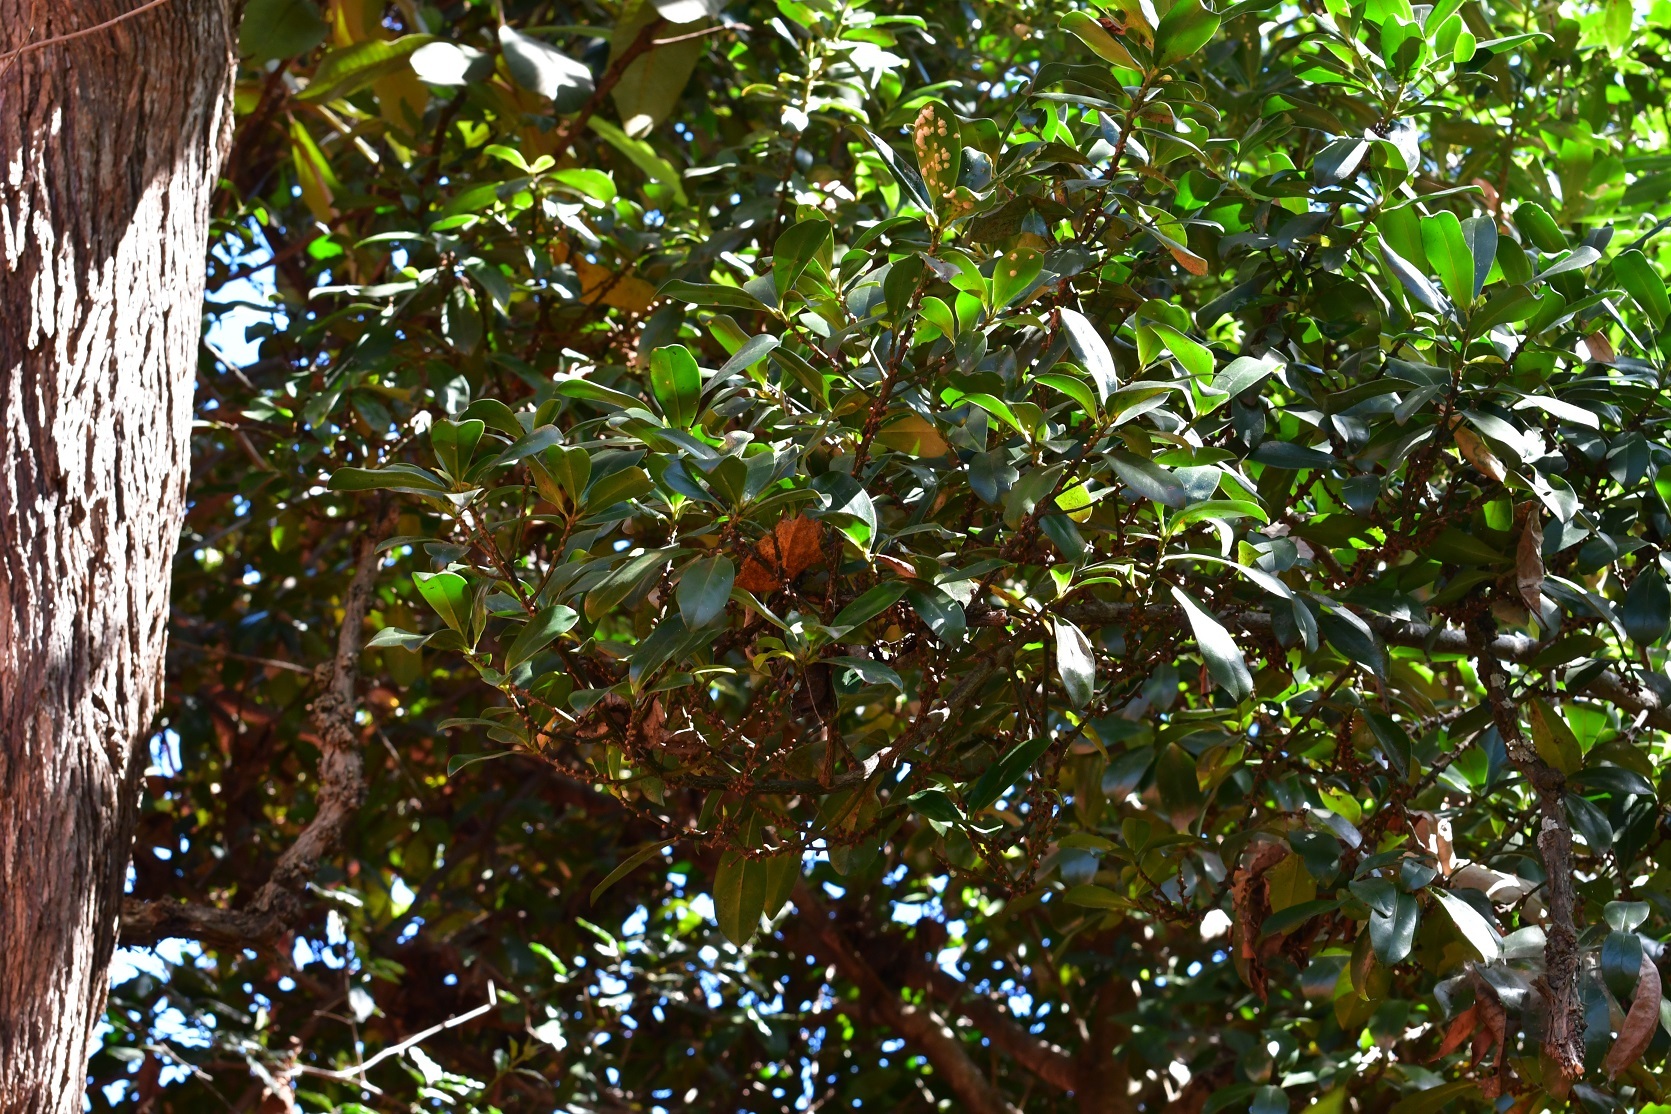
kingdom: Plantae
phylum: Tracheophyta
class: Magnoliopsida
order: Ericales
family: Primulaceae
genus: Myrsine
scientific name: Myrsine juergensenii
